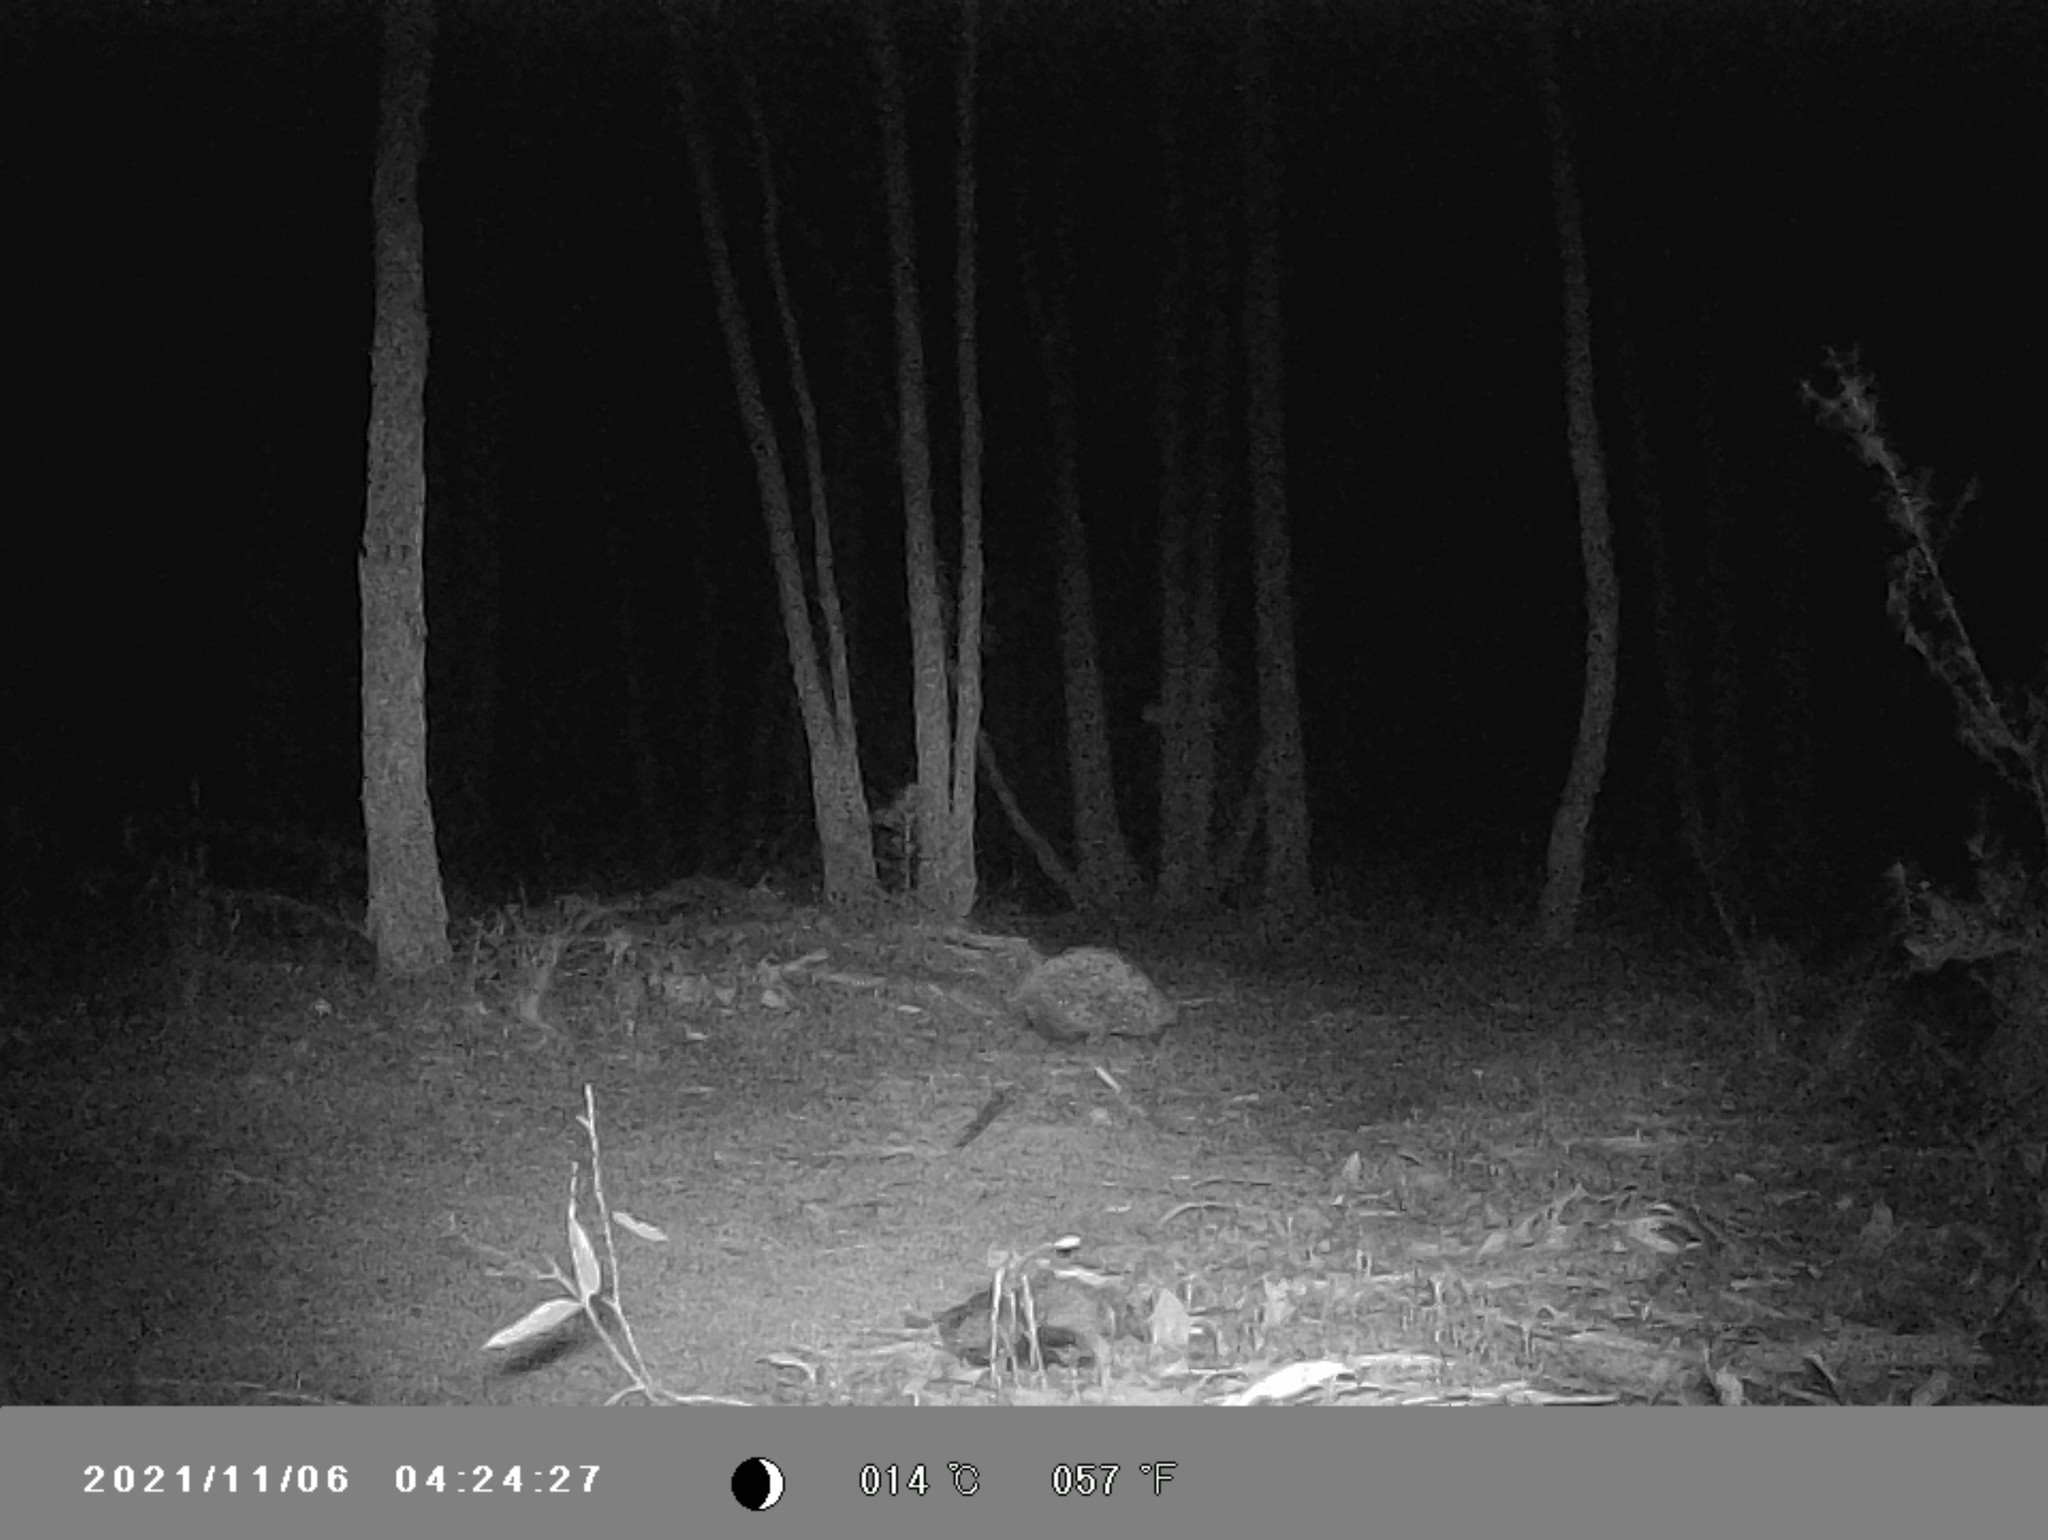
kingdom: Animalia
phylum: Chordata
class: Mammalia
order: Monotremata
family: Tachyglossidae
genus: Tachyglossus
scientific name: Tachyglossus aculeatus
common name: Short-beaked echidna
